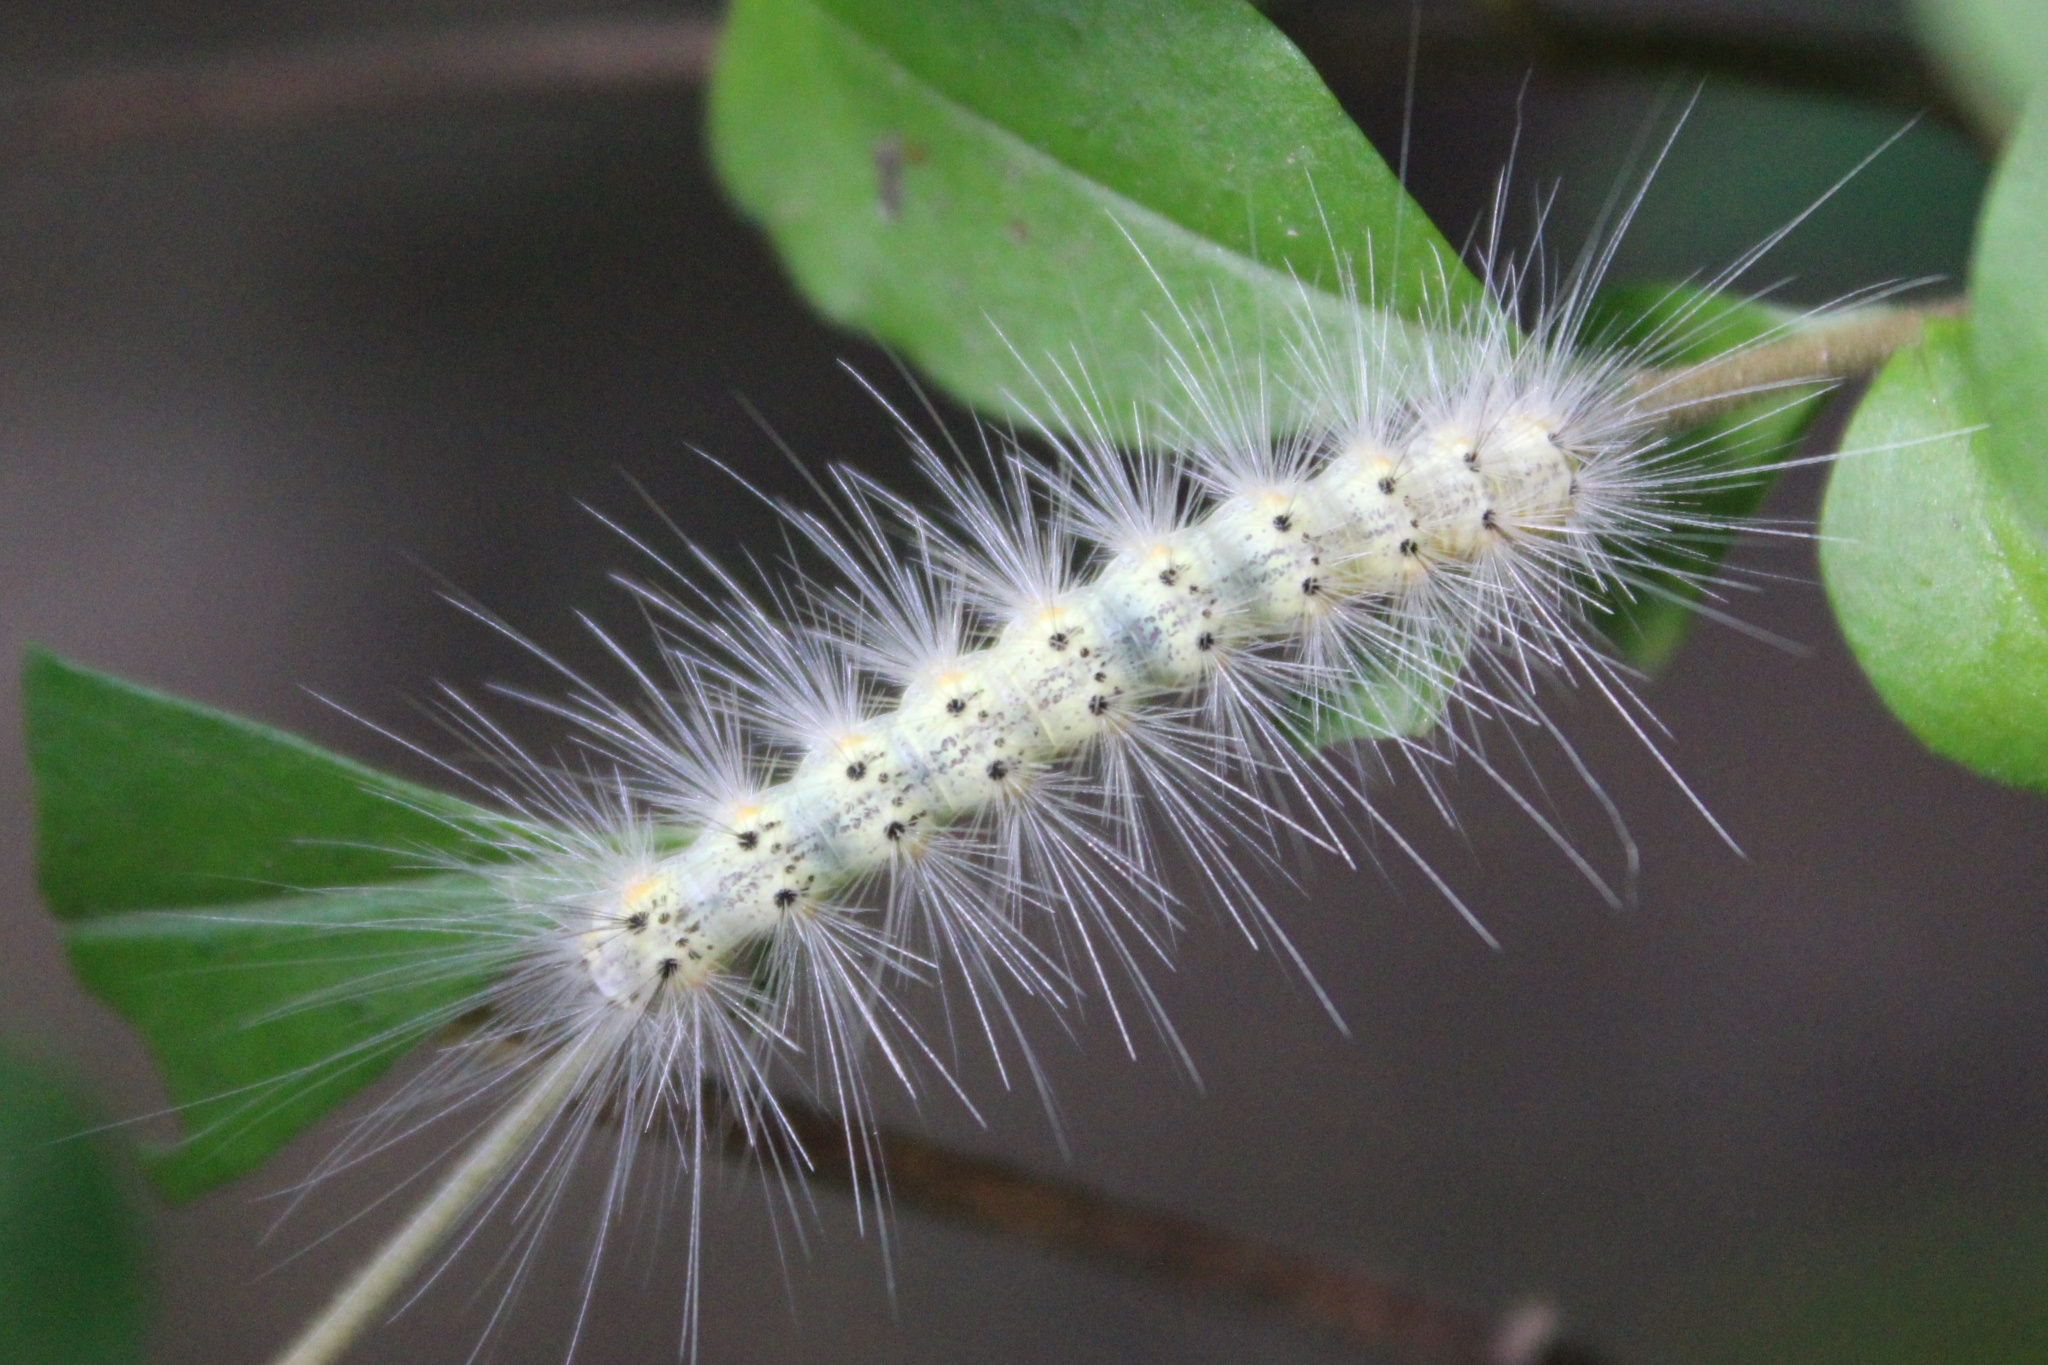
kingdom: Animalia
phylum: Arthropoda
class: Insecta
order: Lepidoptera
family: Erebidae
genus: Hyphantria
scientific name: Hyphantria cunea
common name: American white moth
